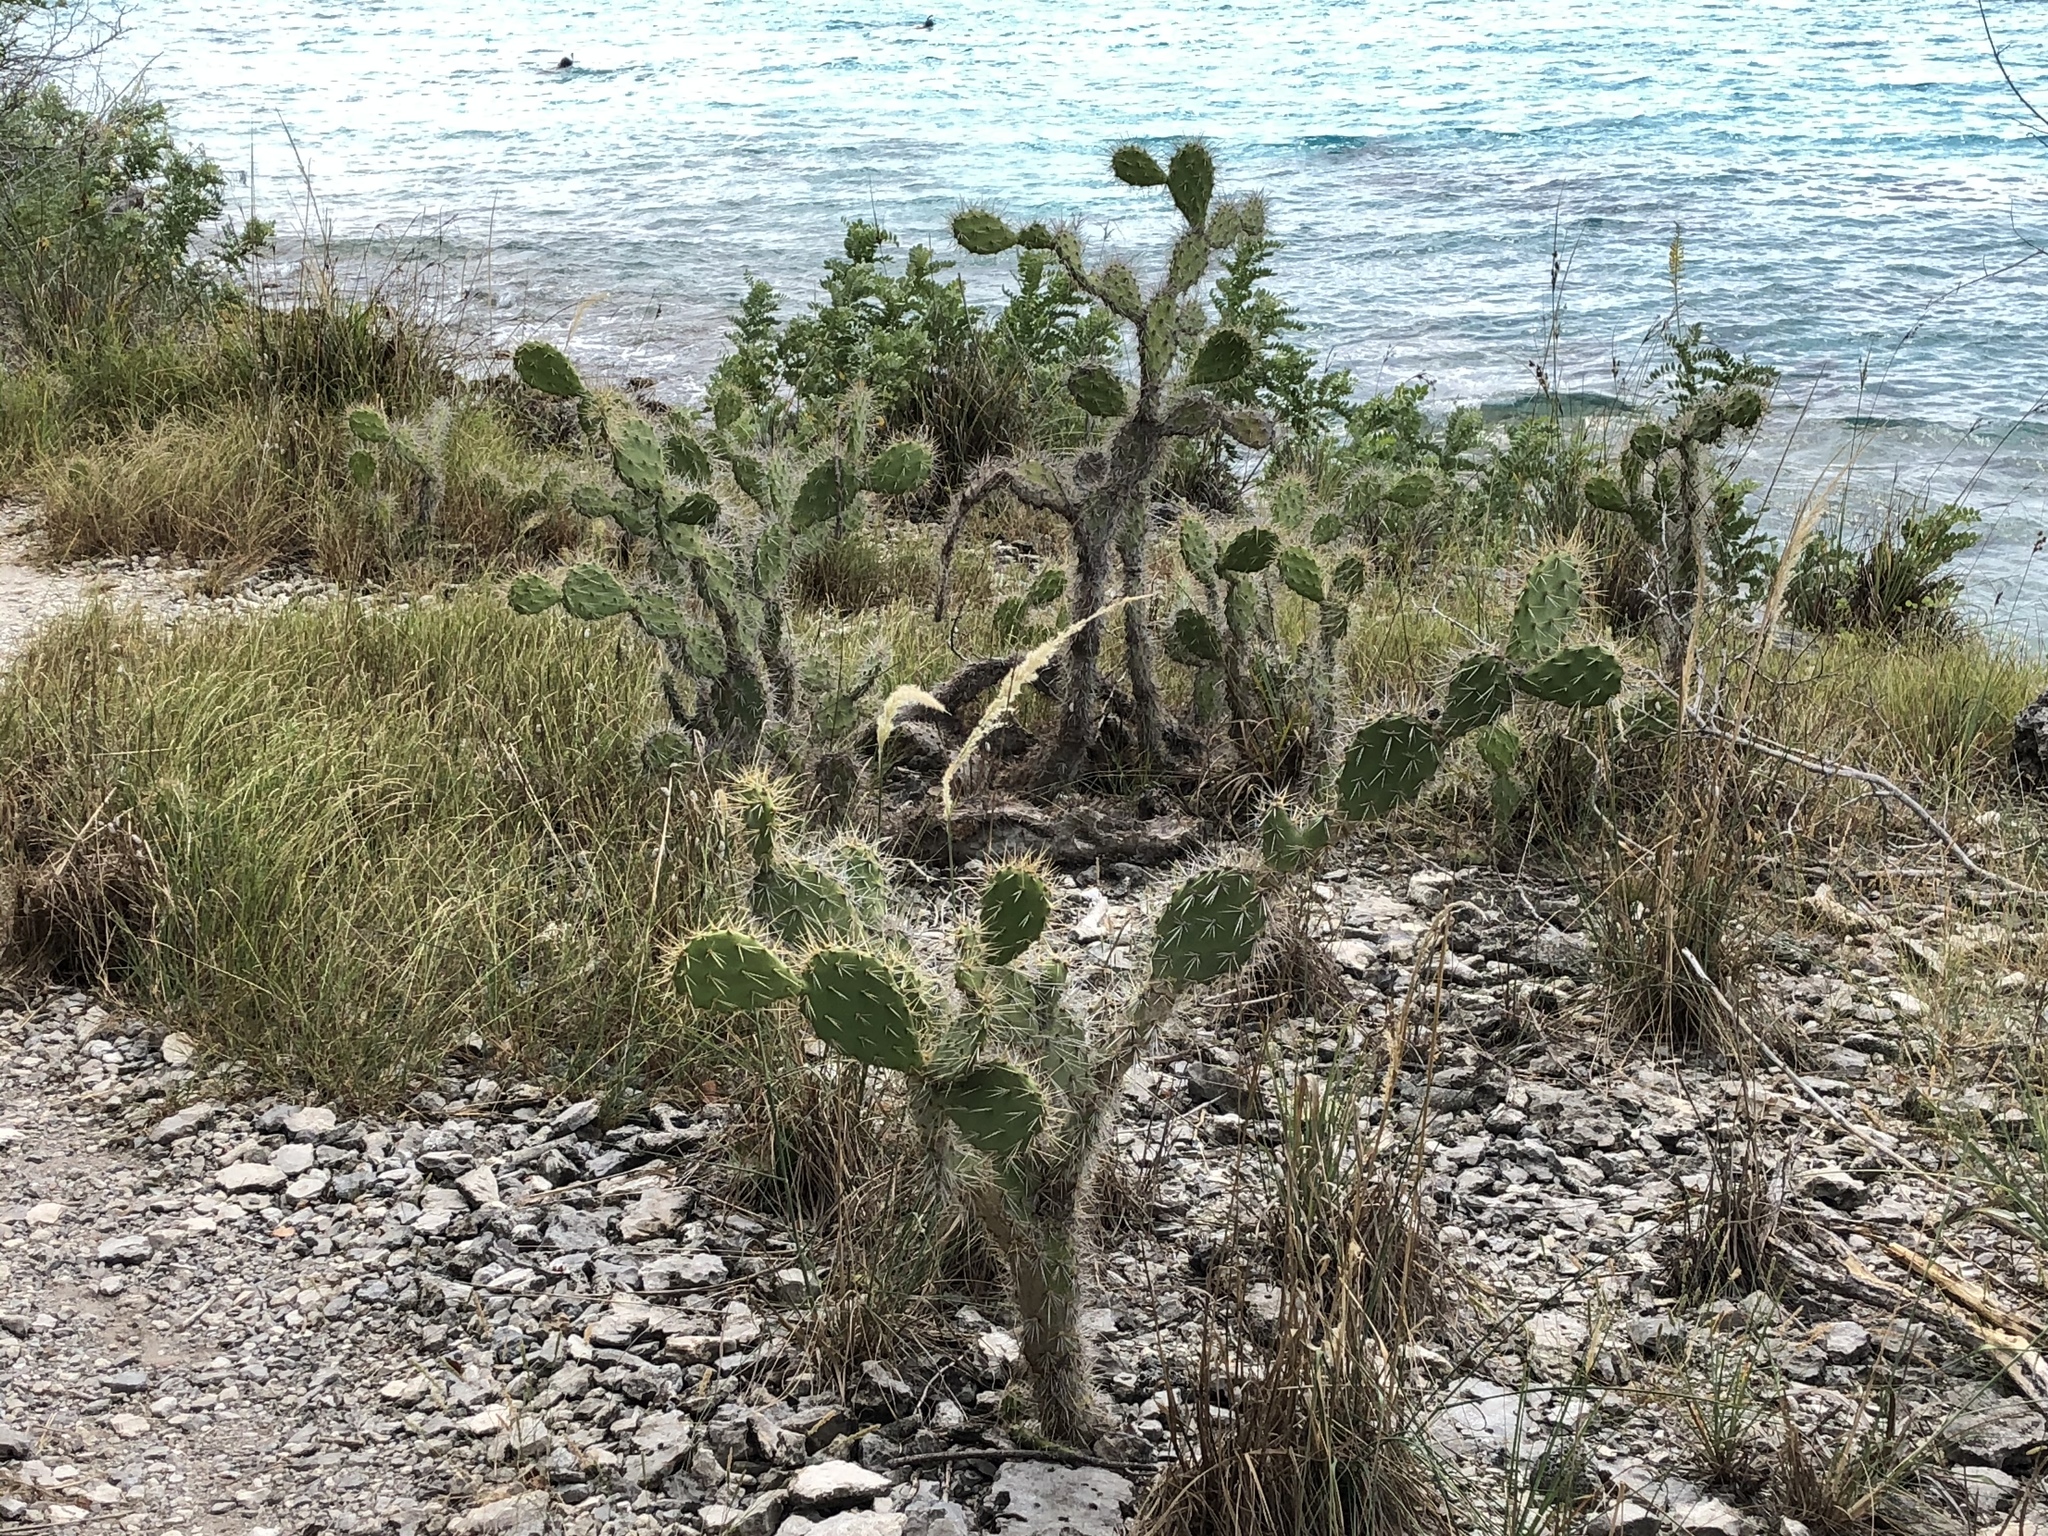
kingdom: Plantae
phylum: Tracheophyta
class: Magnoliopsida
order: Caryophyllales
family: Cactaceae
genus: Opuntia
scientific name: Opuntia caracassana
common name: Common prickly pear
